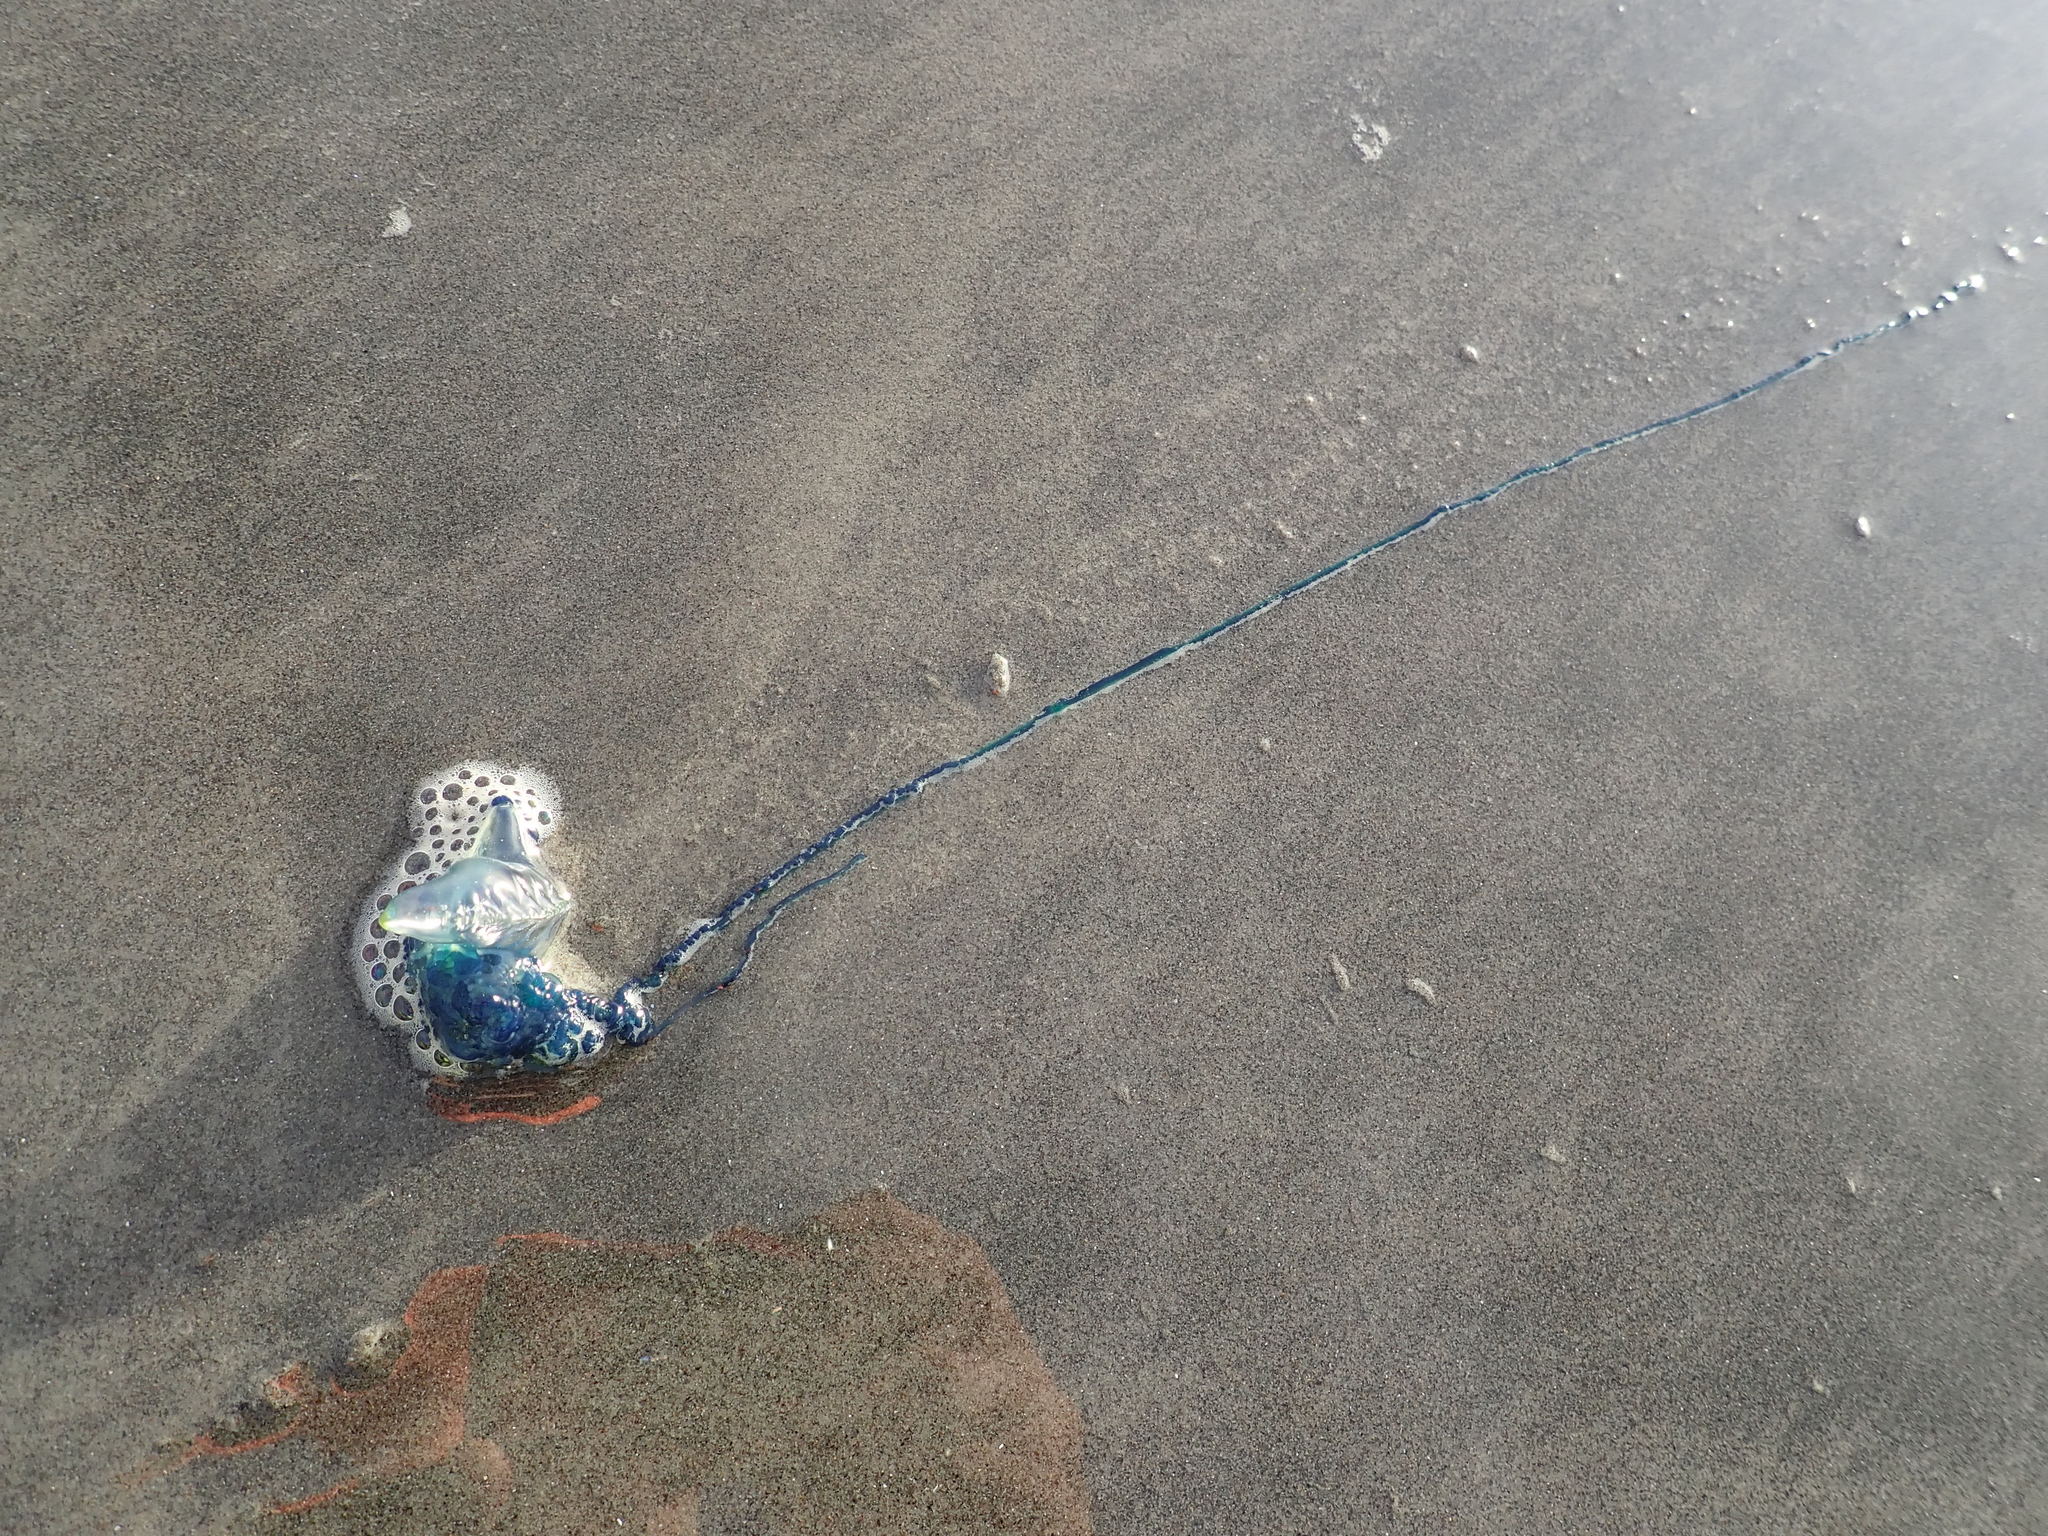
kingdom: Animalia
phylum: Cnidaria
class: Hydrozoa
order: Siphonophorae
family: Physaliidae
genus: Physalia
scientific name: Physalia physalis
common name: Portuguese man-of-war
